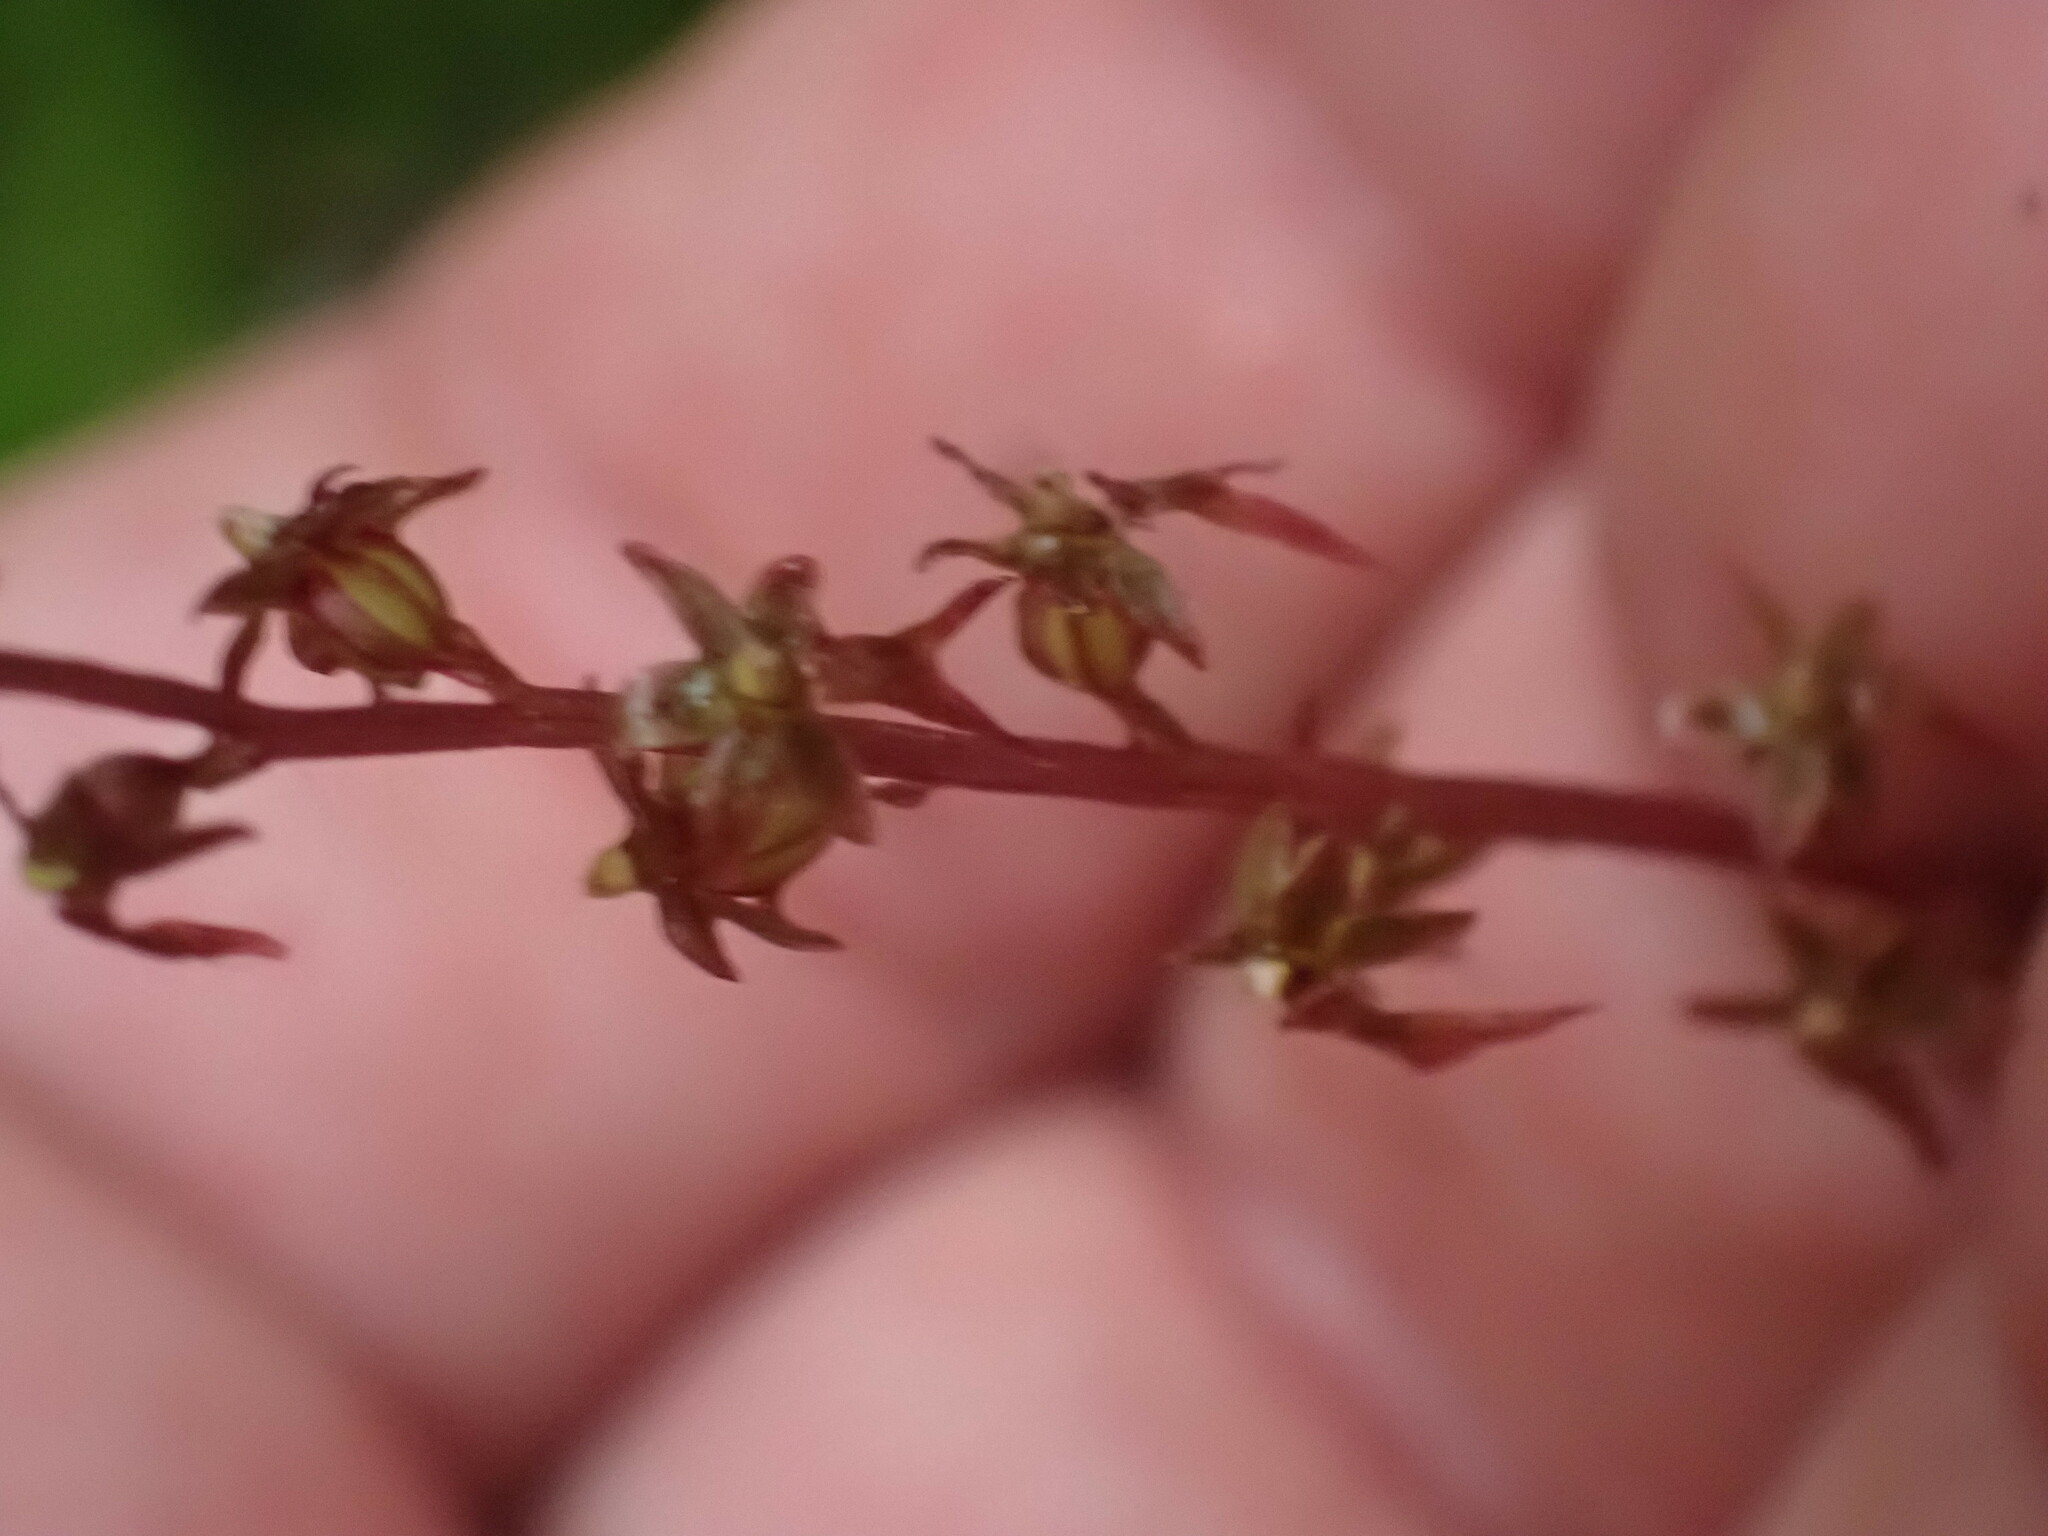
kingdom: Plantae
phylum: Tracheophyta
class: Liliopsida
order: Asparagales
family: Orchidaceae
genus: Neottia
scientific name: Neottia cordata
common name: Lesser twayblade
